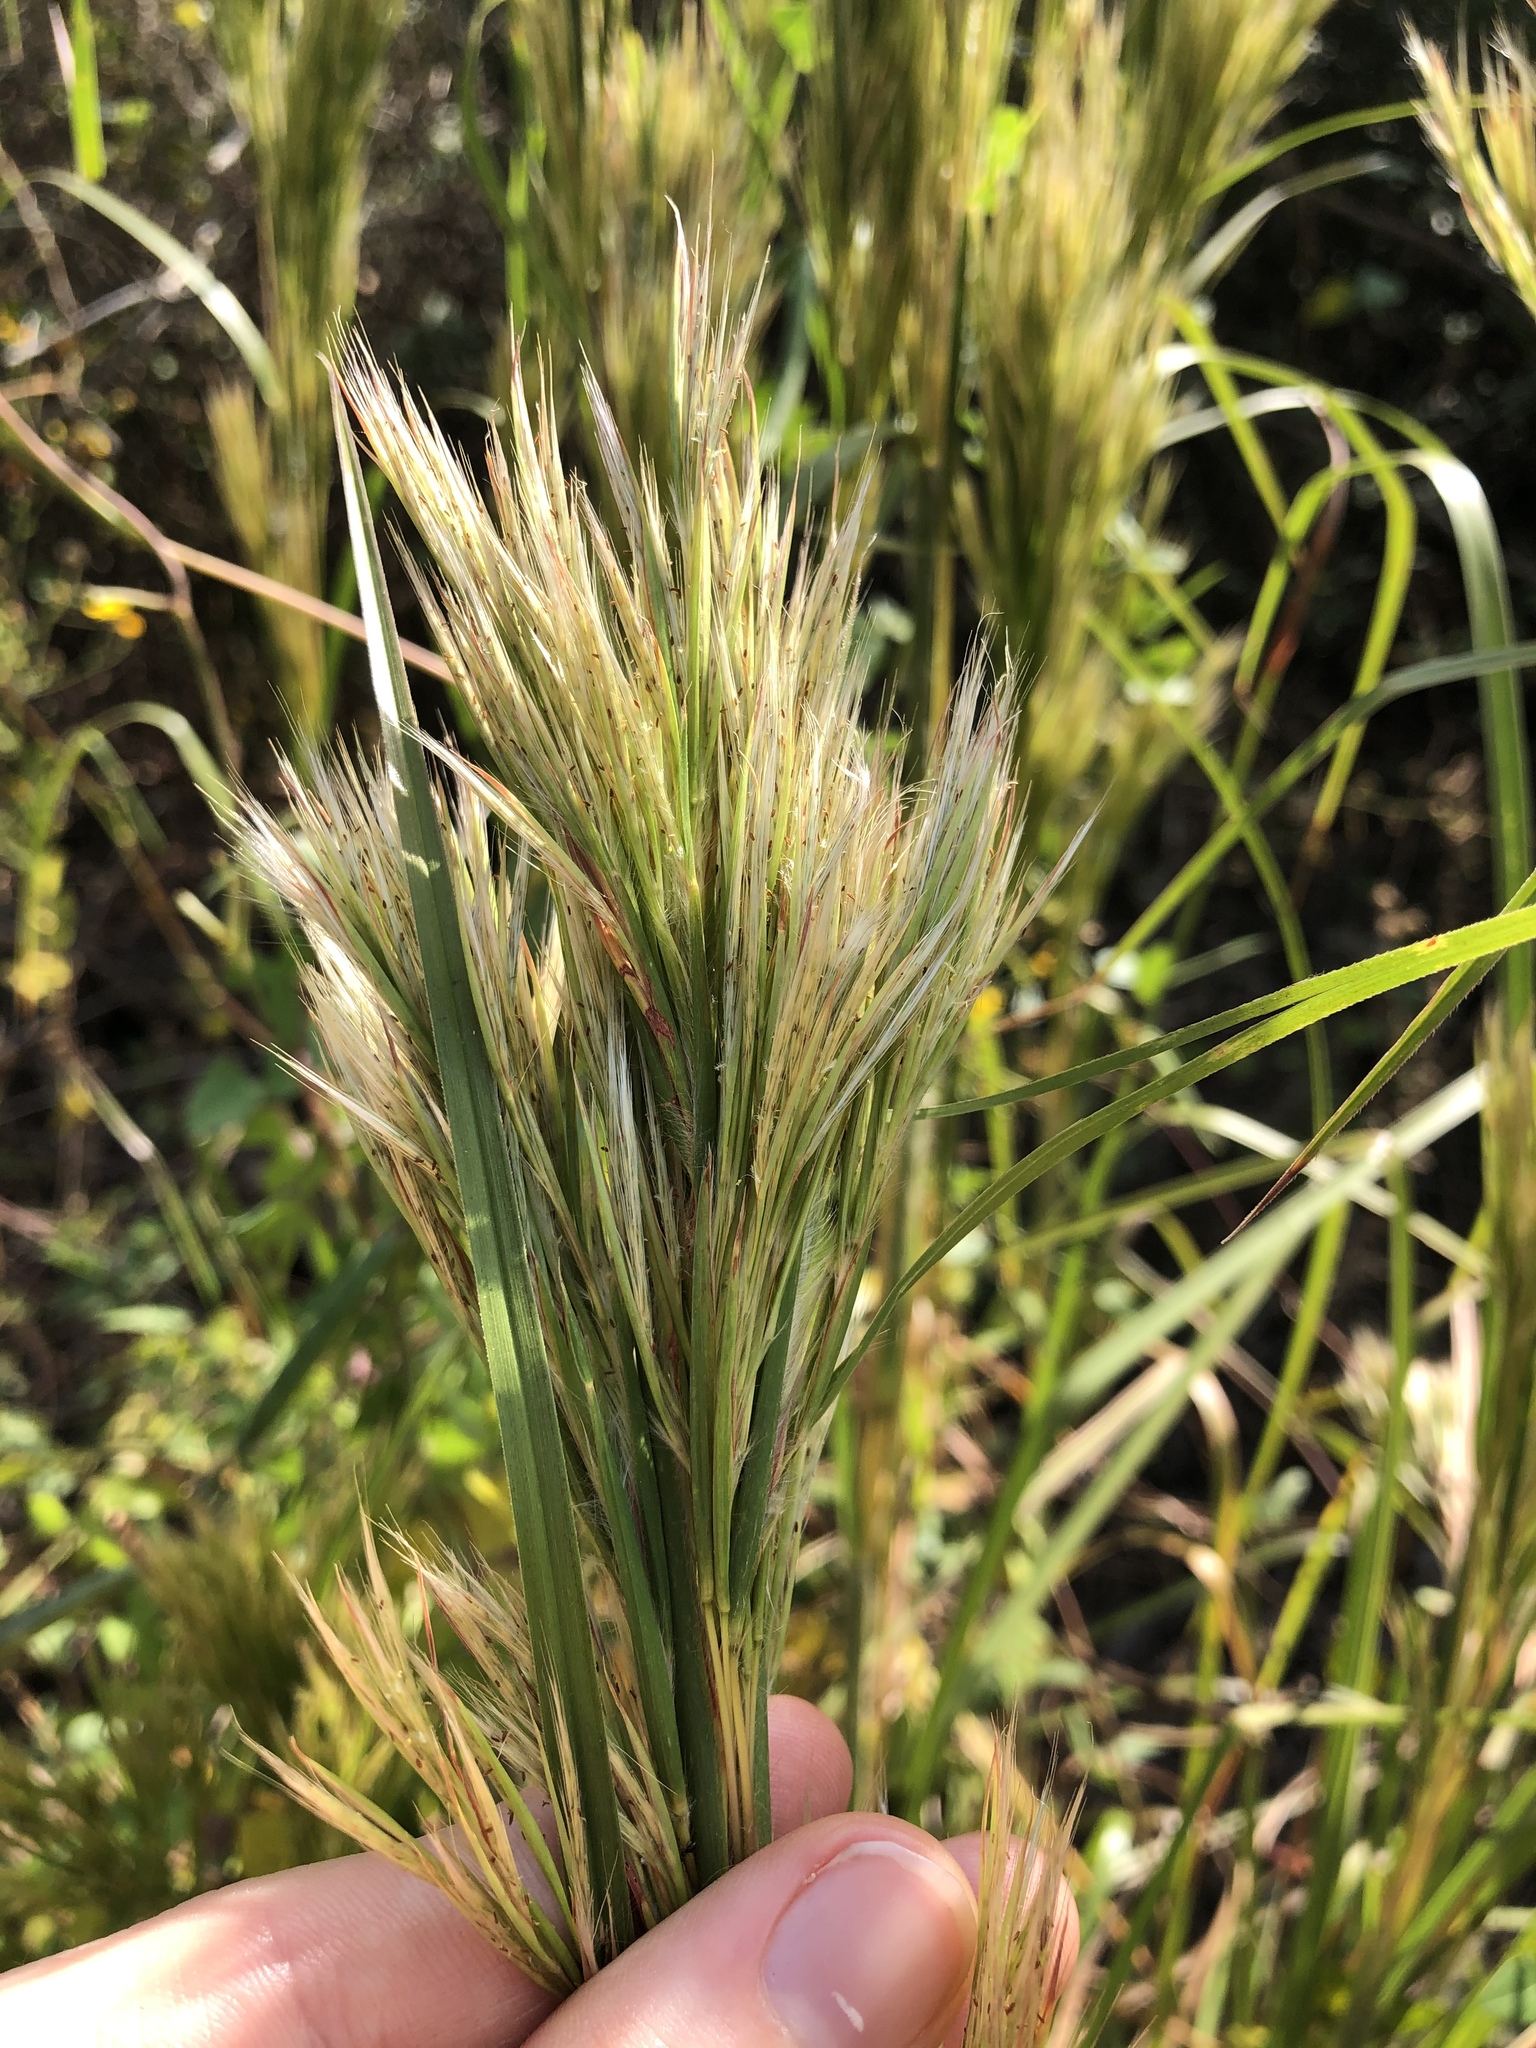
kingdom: Plantae
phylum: Tracheophyta
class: Liliopsida
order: Poales
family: Poaceae
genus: Andropogon
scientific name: Andropogon tenuispatheus
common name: Bushy bluestem
